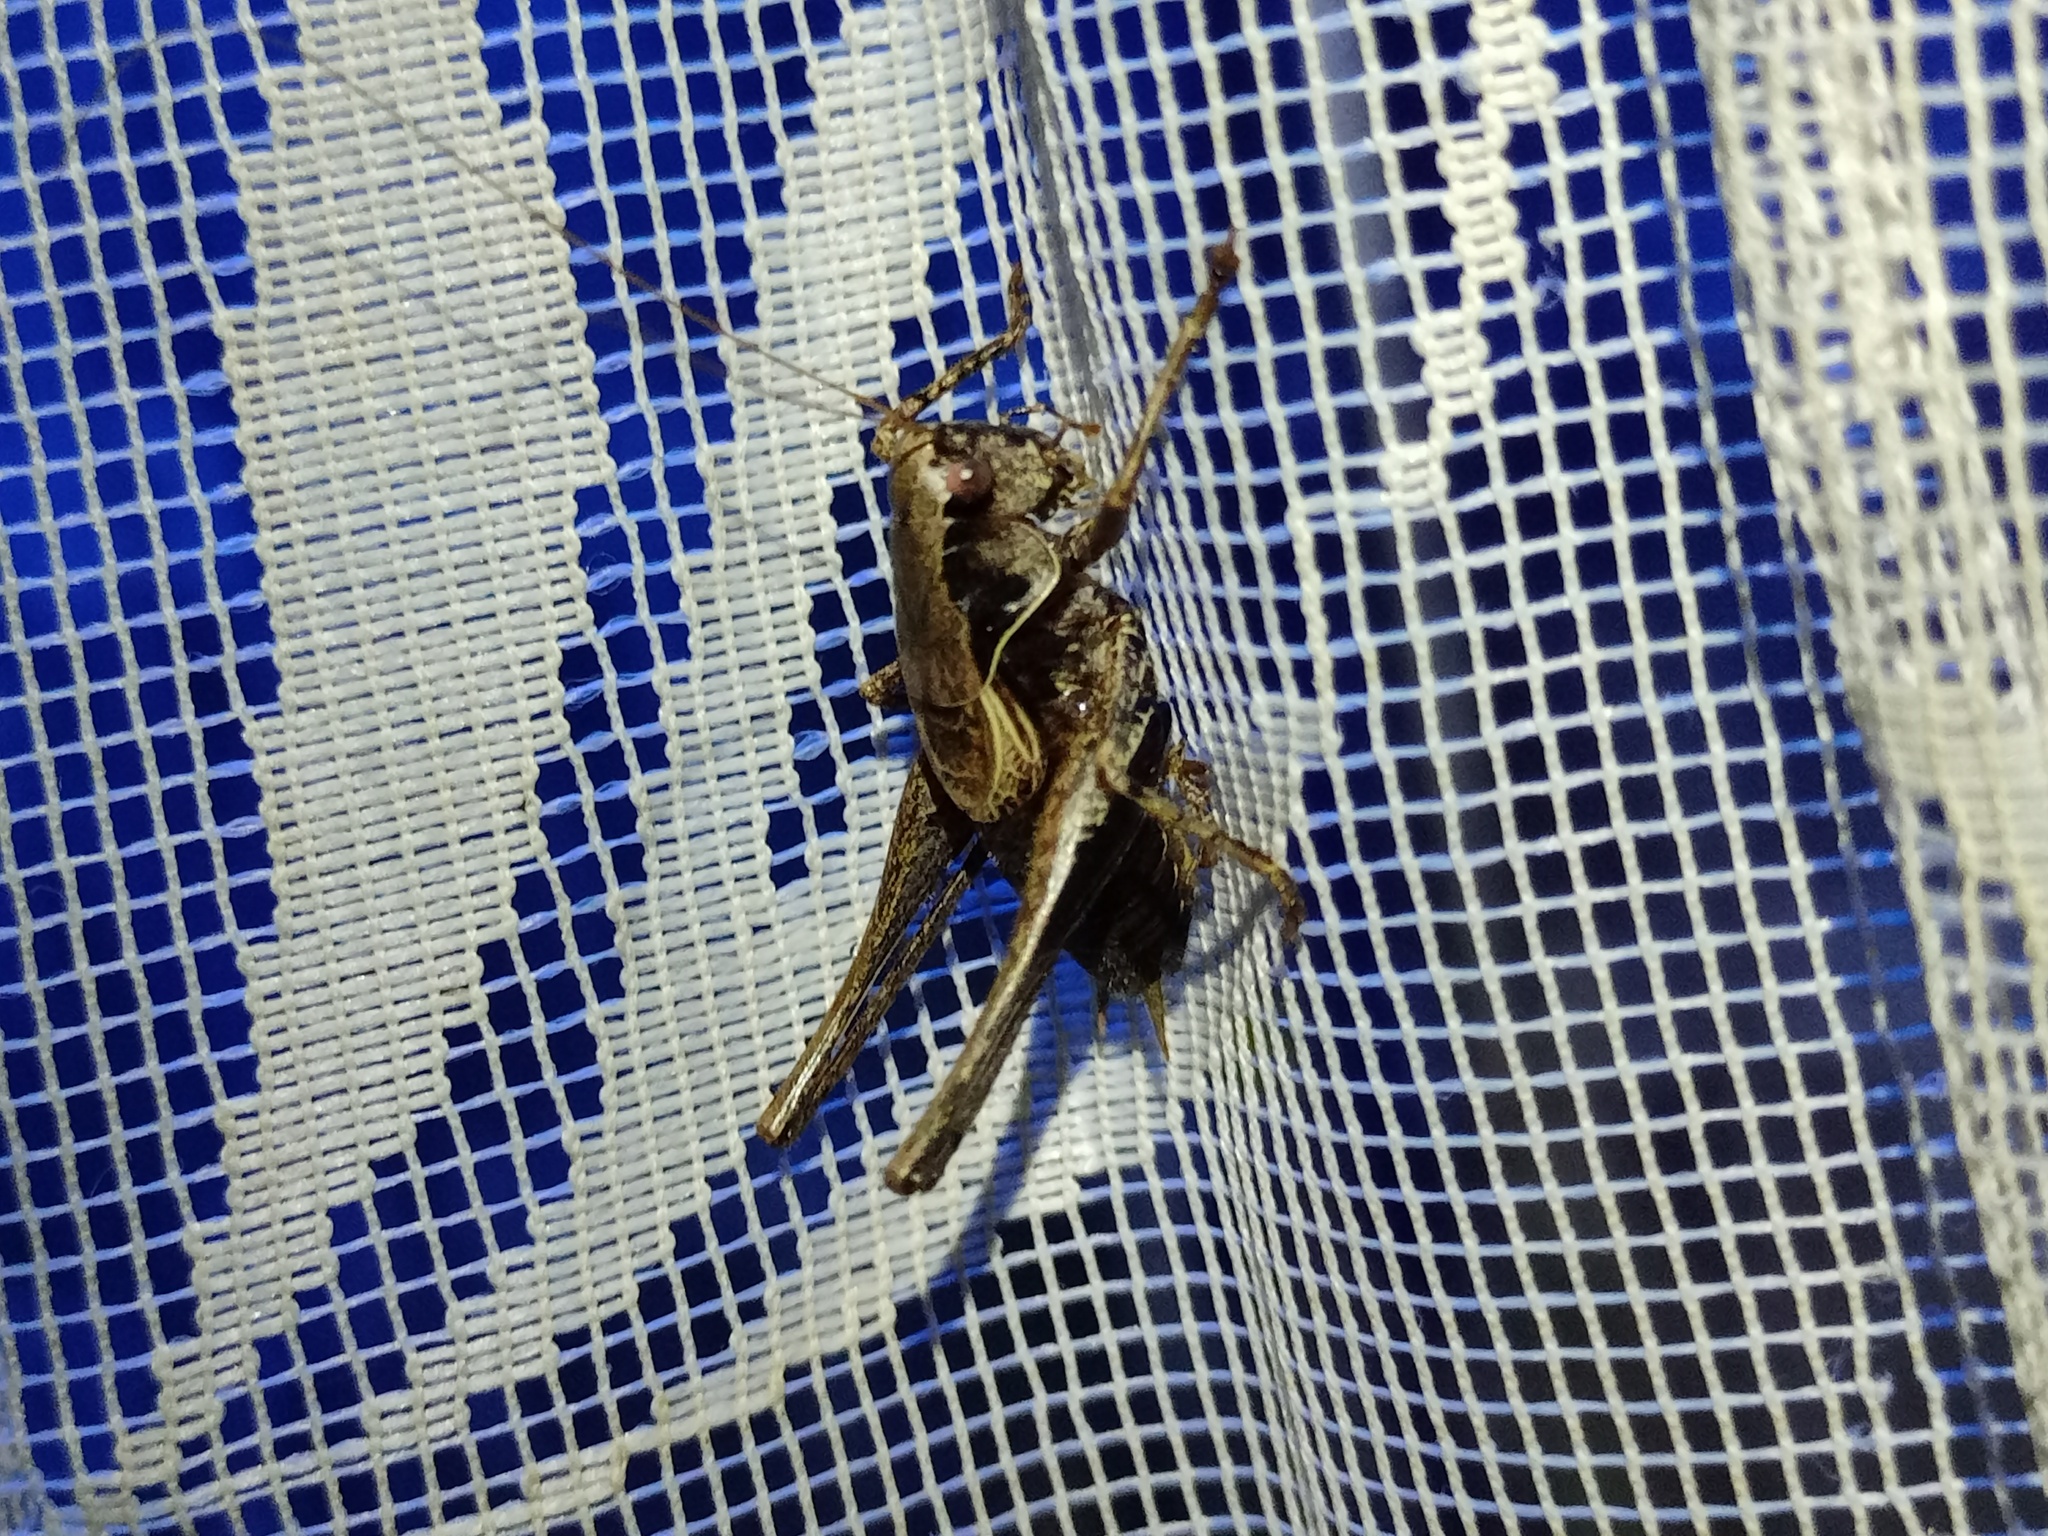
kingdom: Animalia
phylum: Arthropoda
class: Insecta
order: Orthoptera
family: Tettigoniidae
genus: Pholidoptera
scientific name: Pholidoptera griseoaptera
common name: Dark bush-cricket
